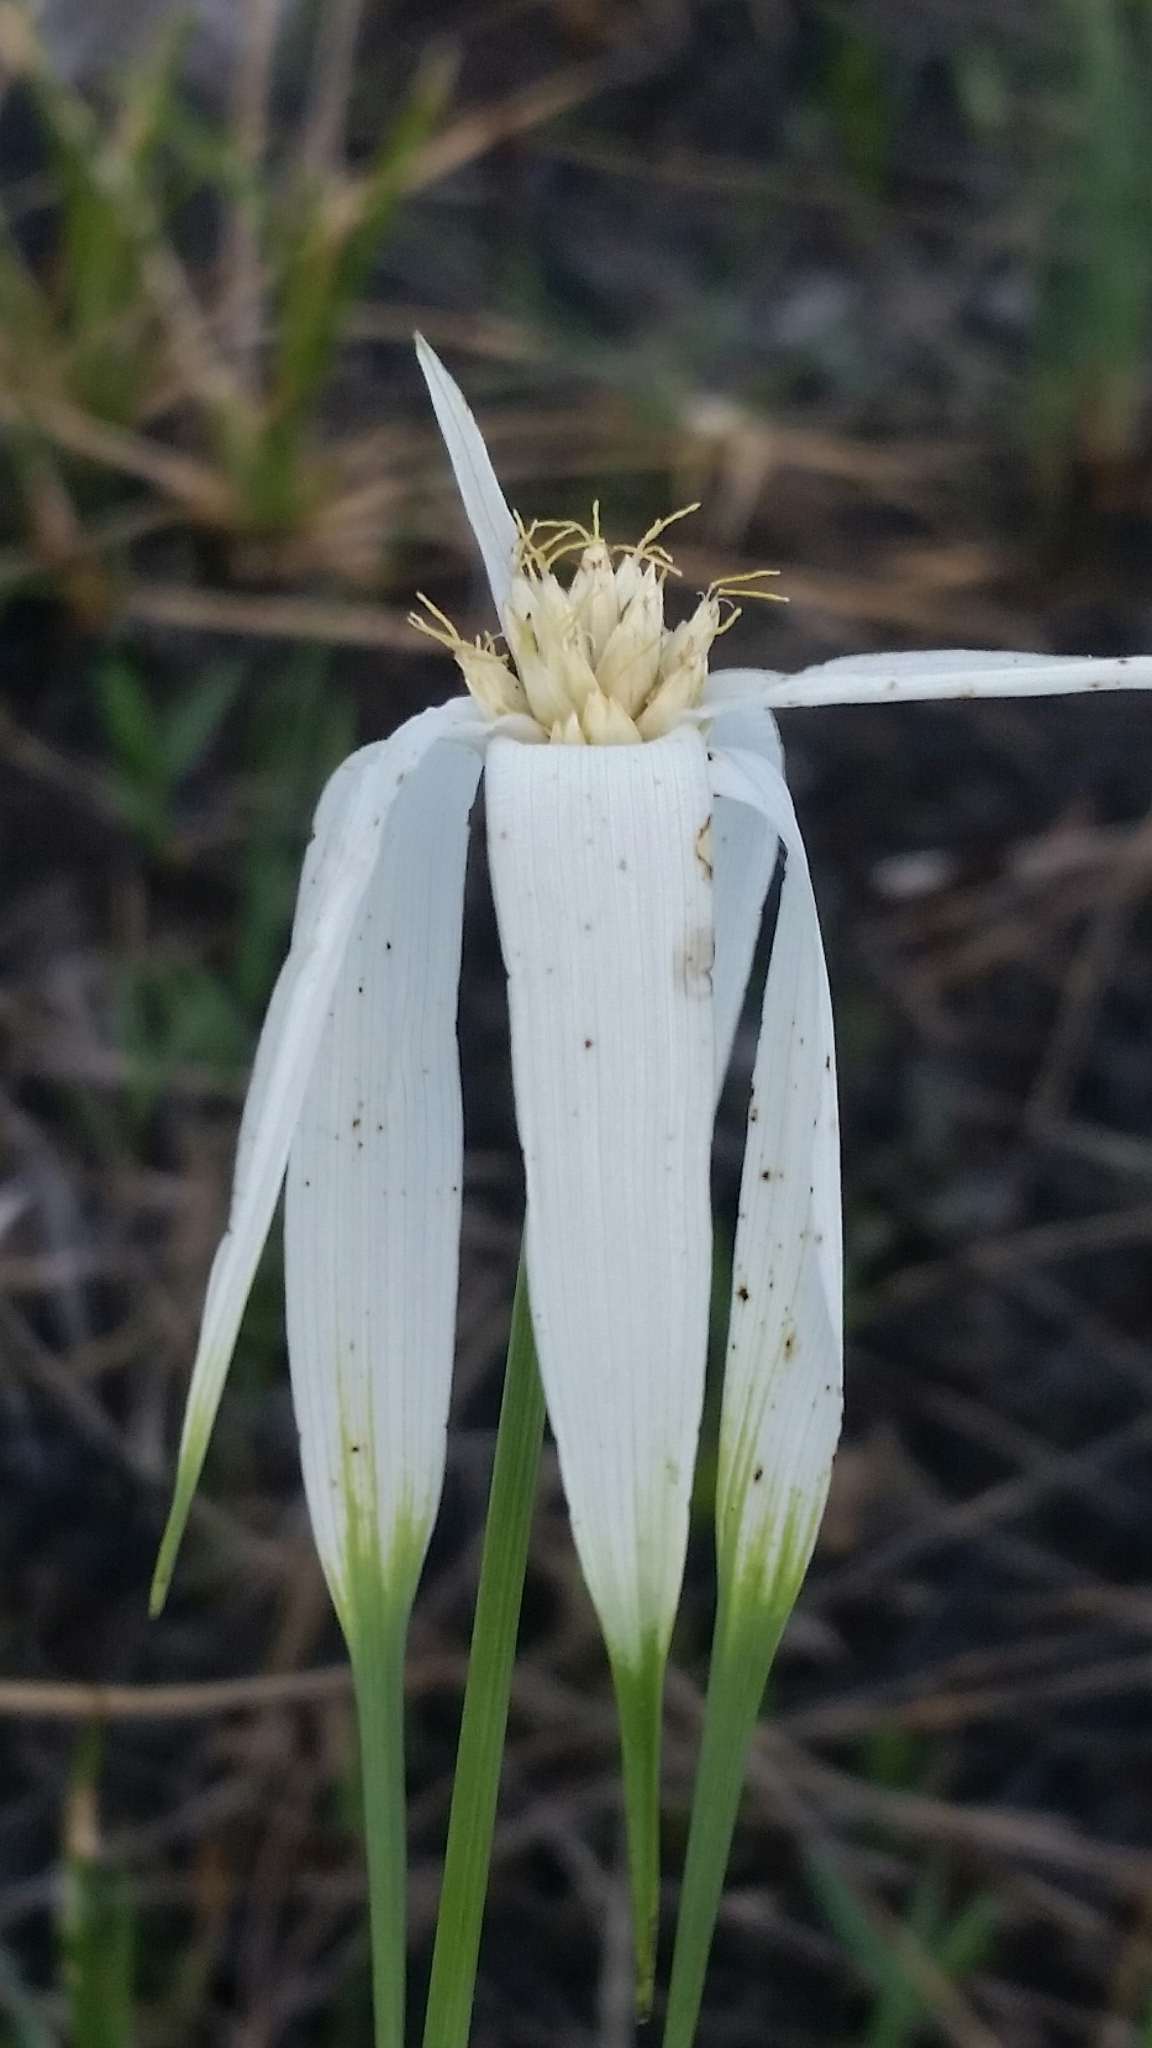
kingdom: Plantae
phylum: Tracheophyta
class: Liliopsida
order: Poales
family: Cyperaceae
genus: Rhynchospora
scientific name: Rhynchospora latifolia
